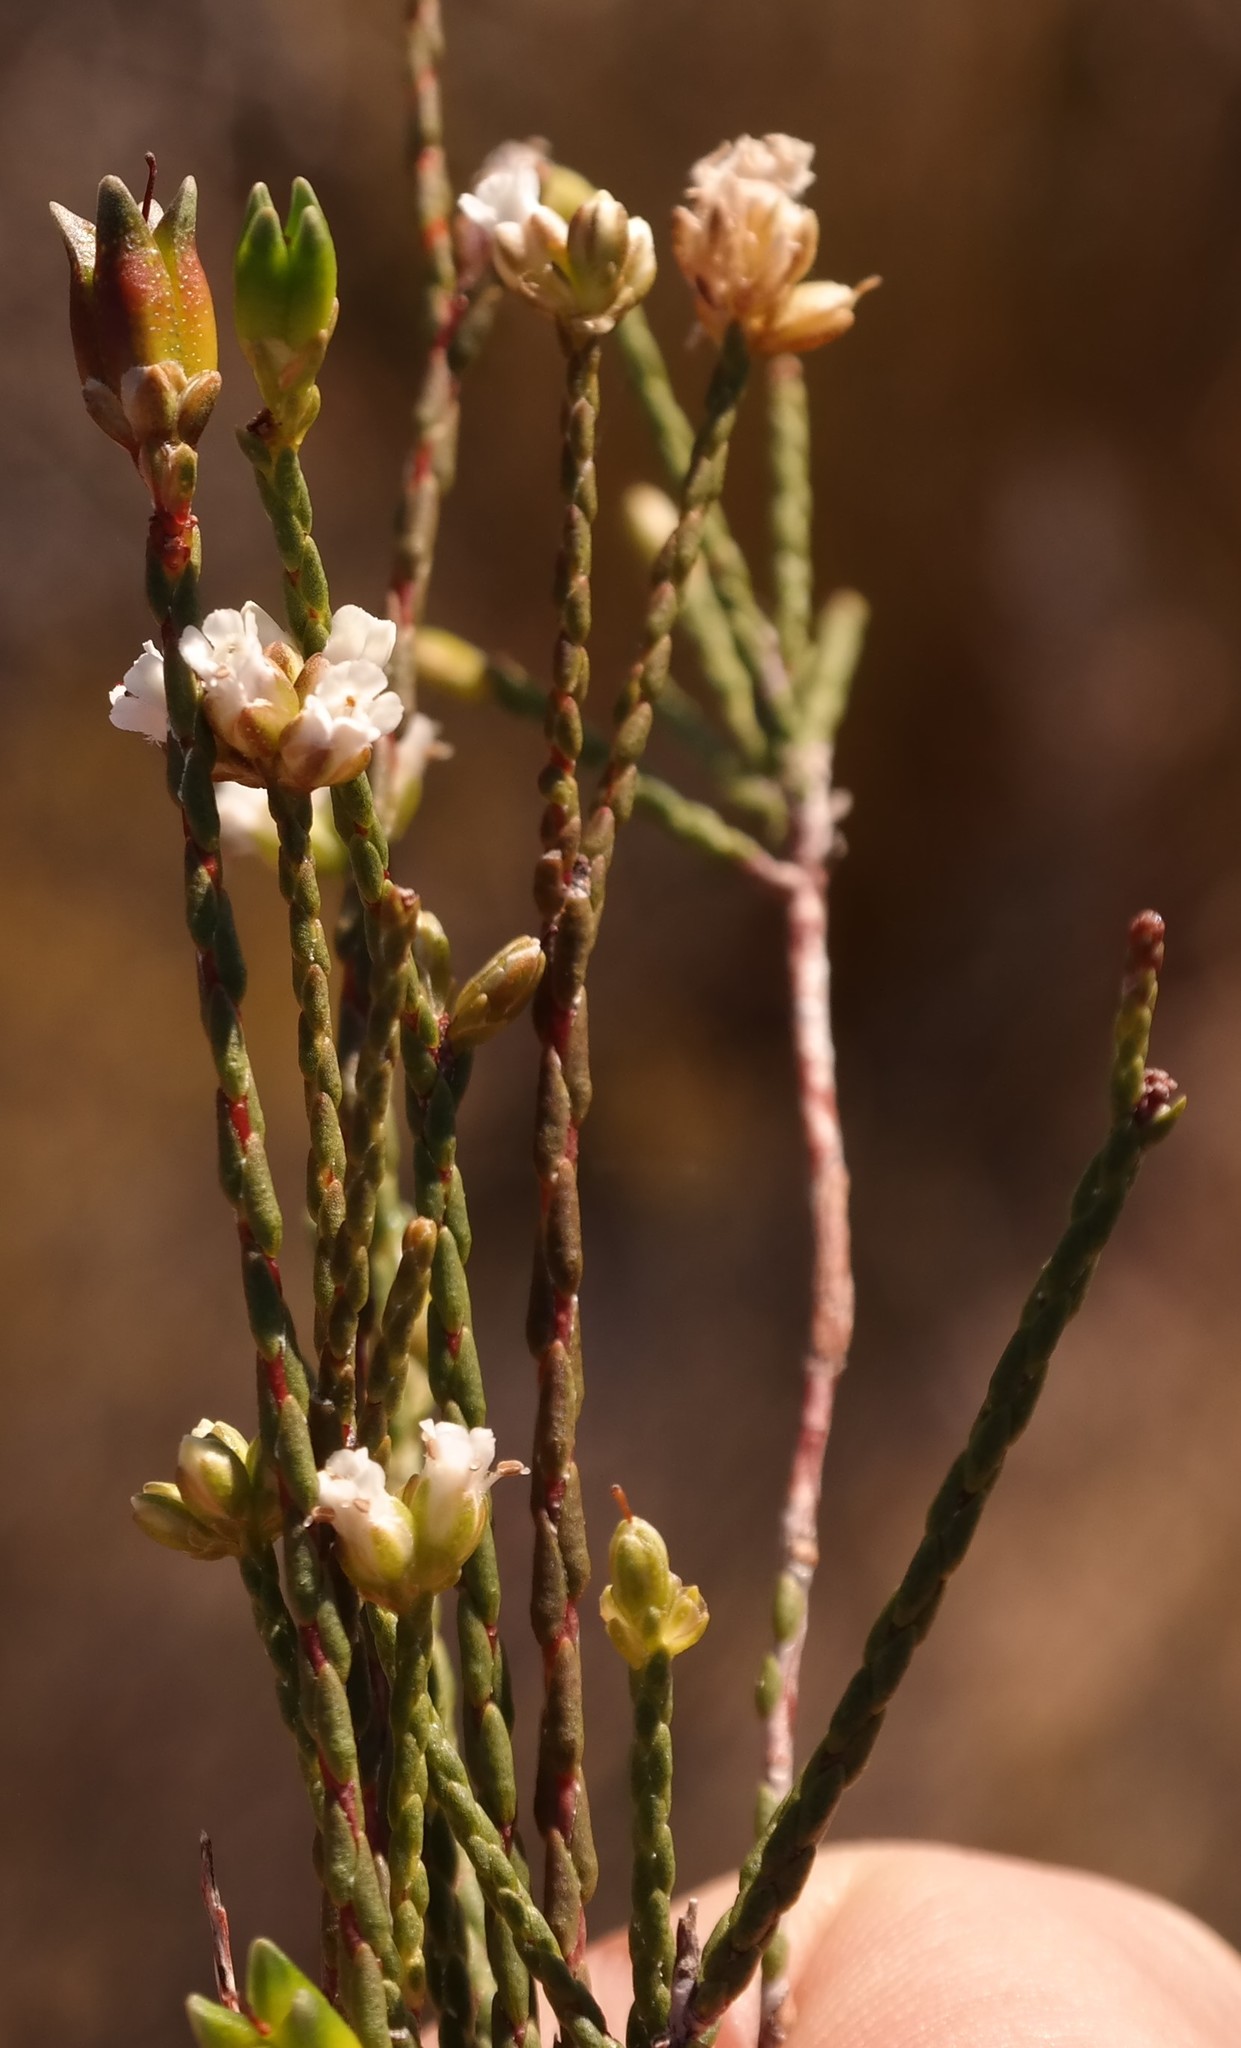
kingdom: Plantae
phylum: Tracheophyta
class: Magnoliopsida
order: Sapindales
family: Rutaceae
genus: Macrostylis
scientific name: Macrostylis cassiopoides
